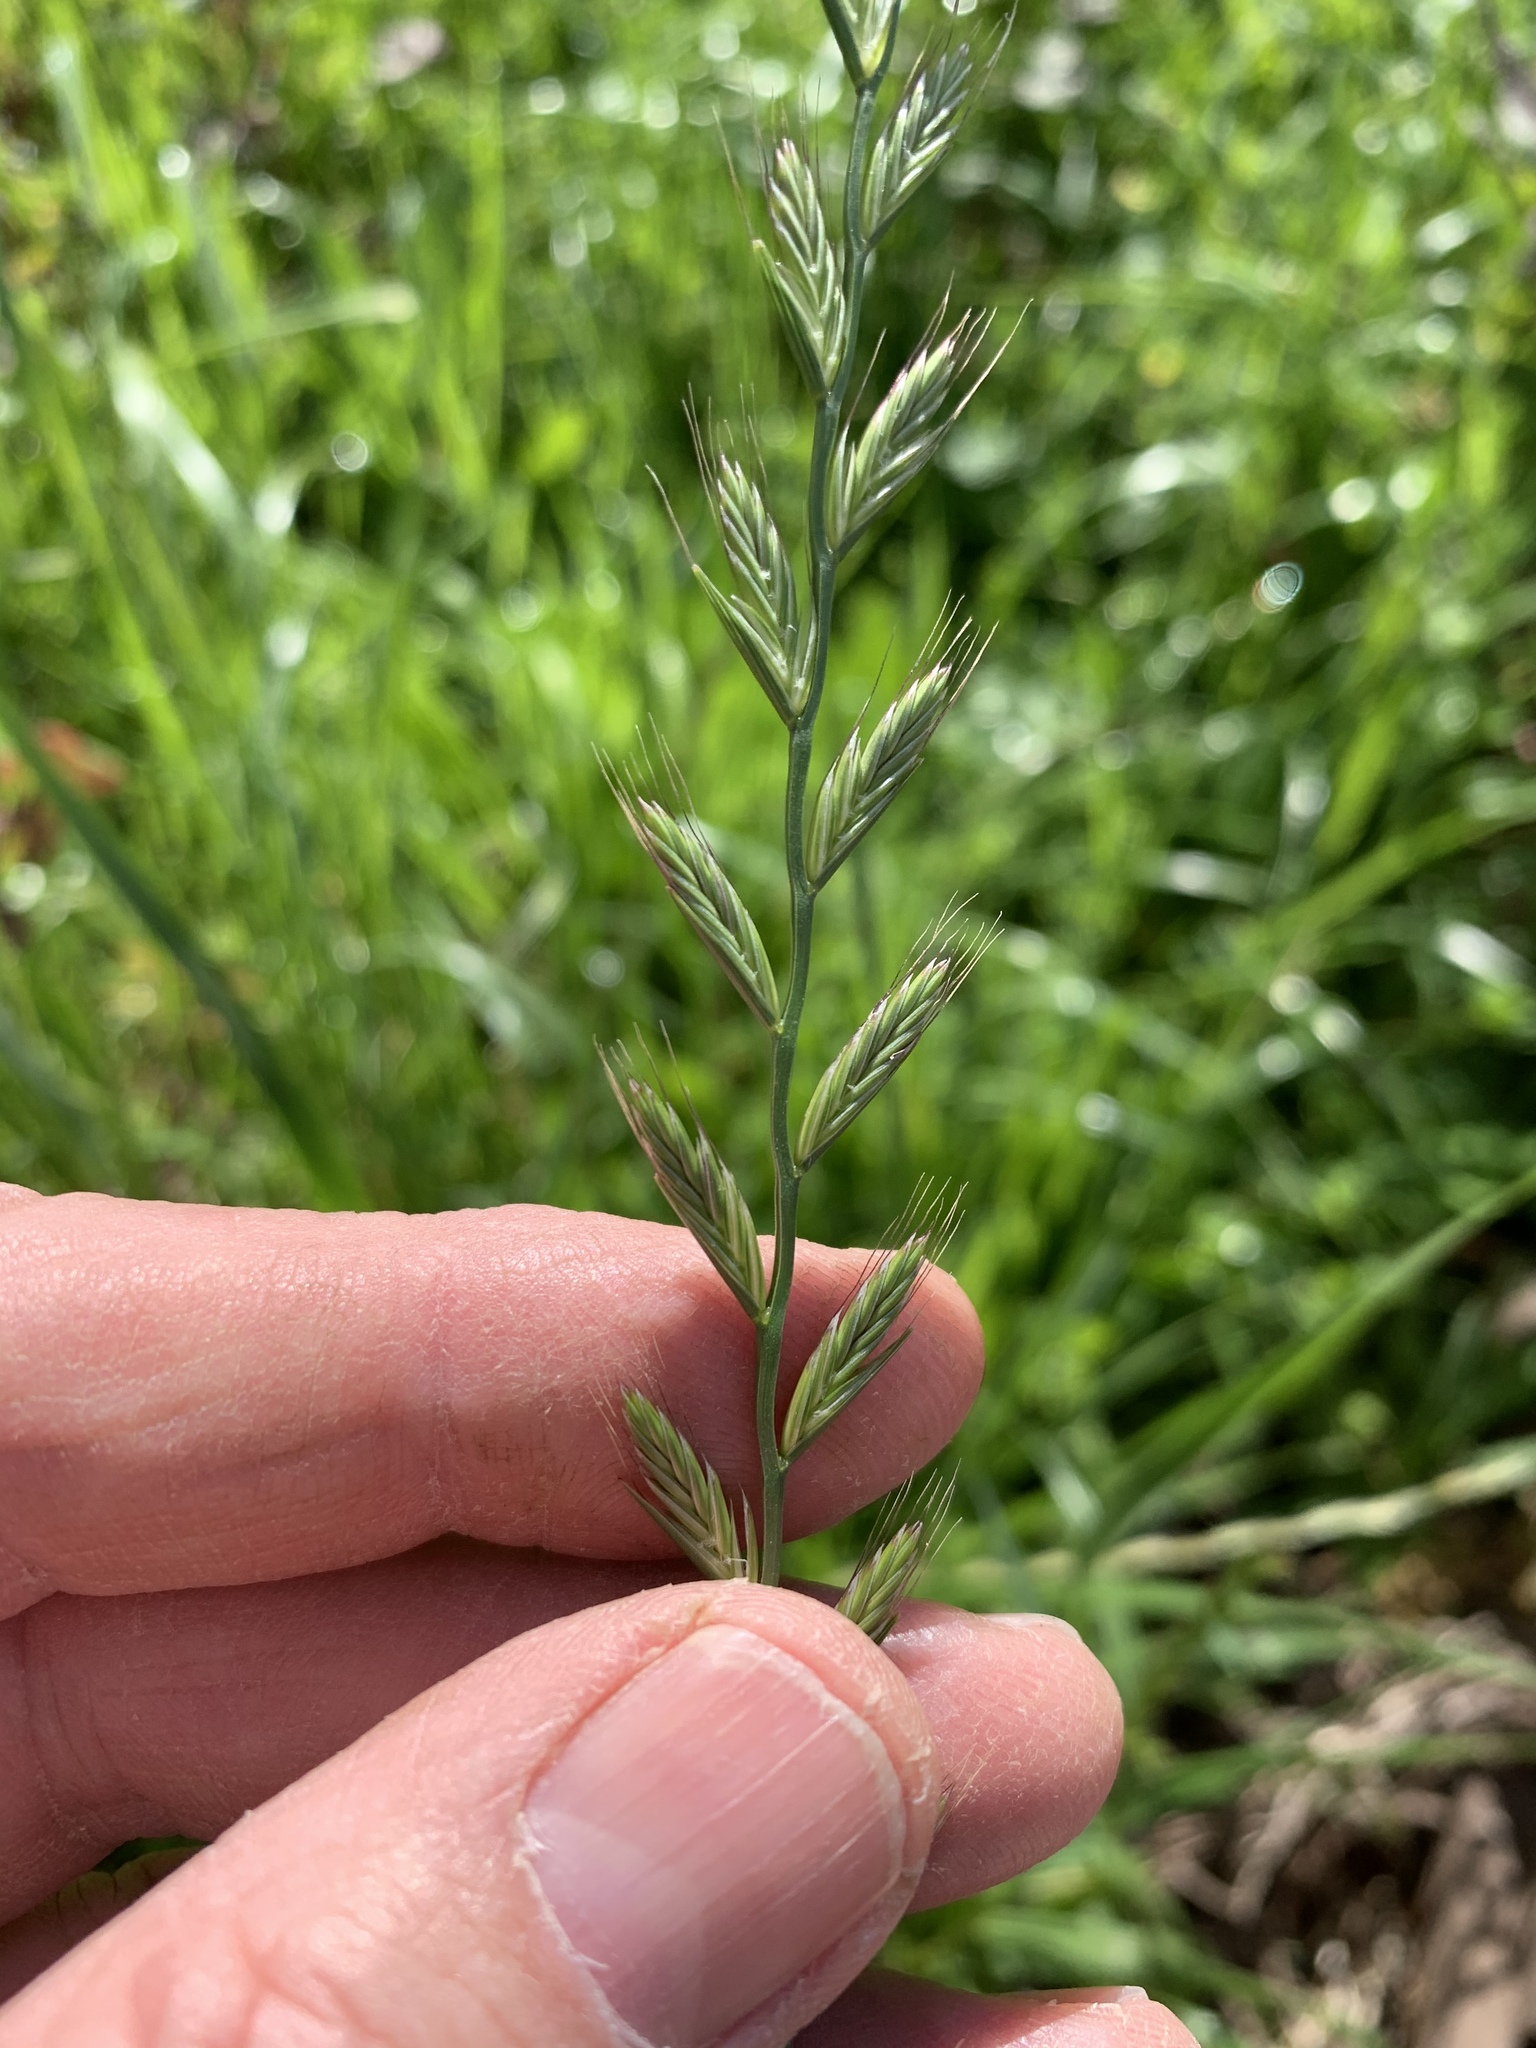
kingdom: Plantae
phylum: Tracheophyta
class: Liliopsida
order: Poales
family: Poaceae
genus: Lolium
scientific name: Lolium multiflorum
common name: Annual ryegrass
